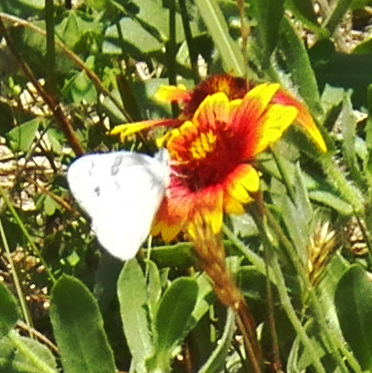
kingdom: Animalia
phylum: Arthropoda
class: Insecta
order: Lepidoptera
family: Pieridae
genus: Pontia
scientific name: Pontia protodice
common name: Checkered white
